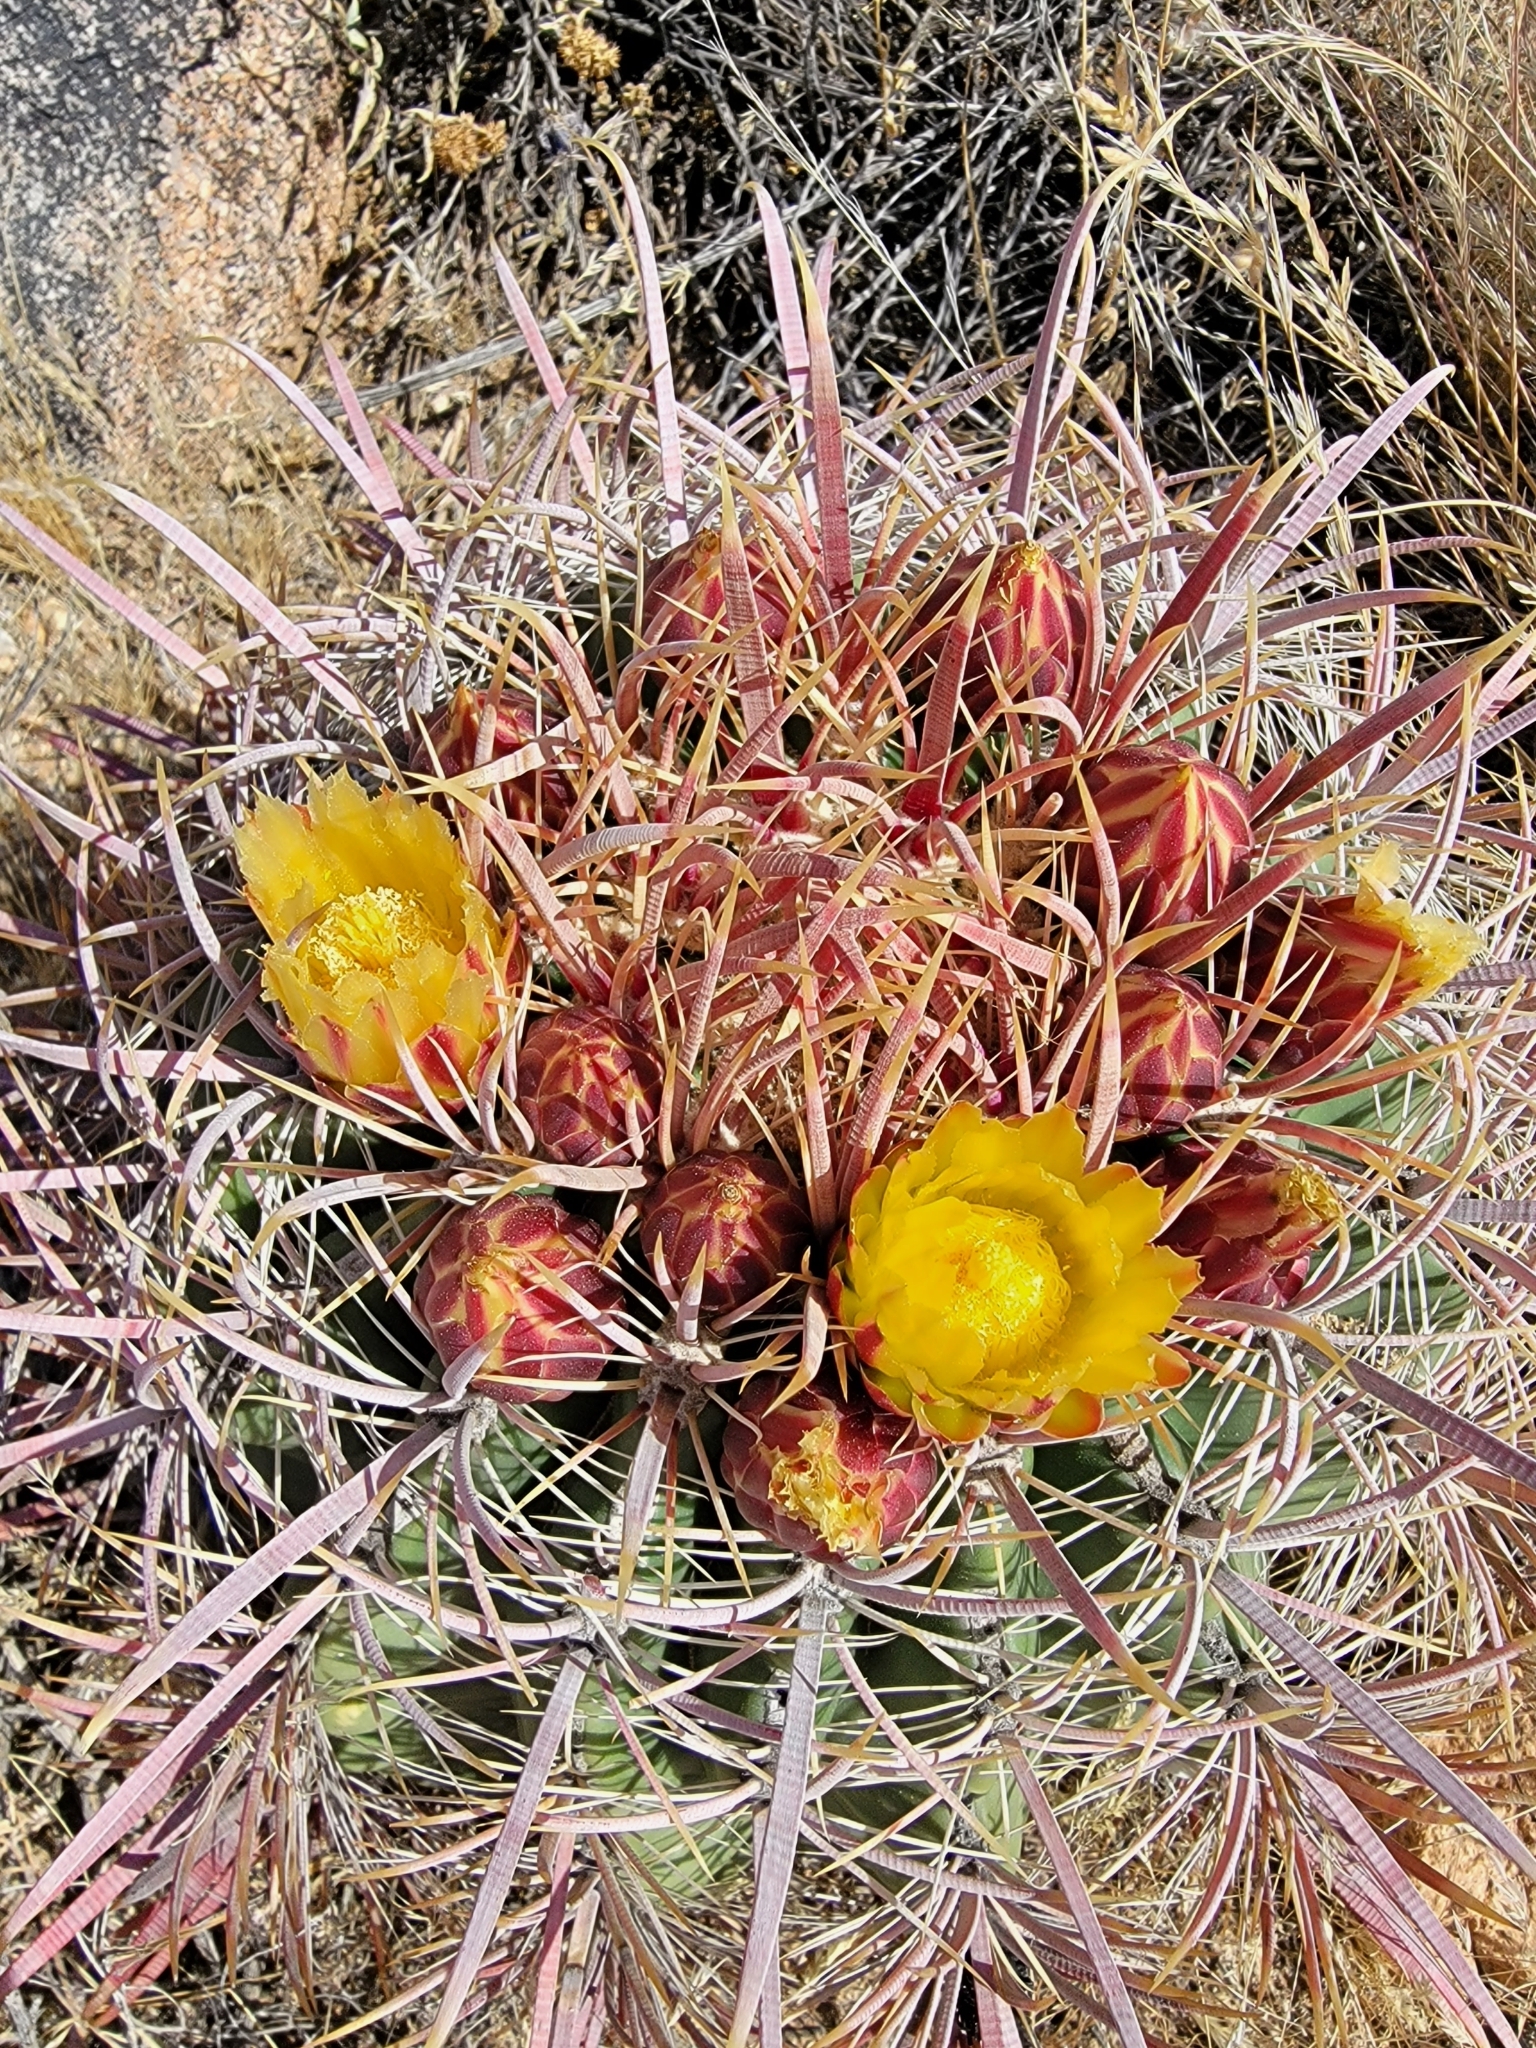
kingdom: Plantae
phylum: Tracheophyta
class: Magnoliopsida
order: Caryophyllales
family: Cactaceae
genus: Ferocactus
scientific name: Ferocactus cylindraceus
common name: California barrel cactus
